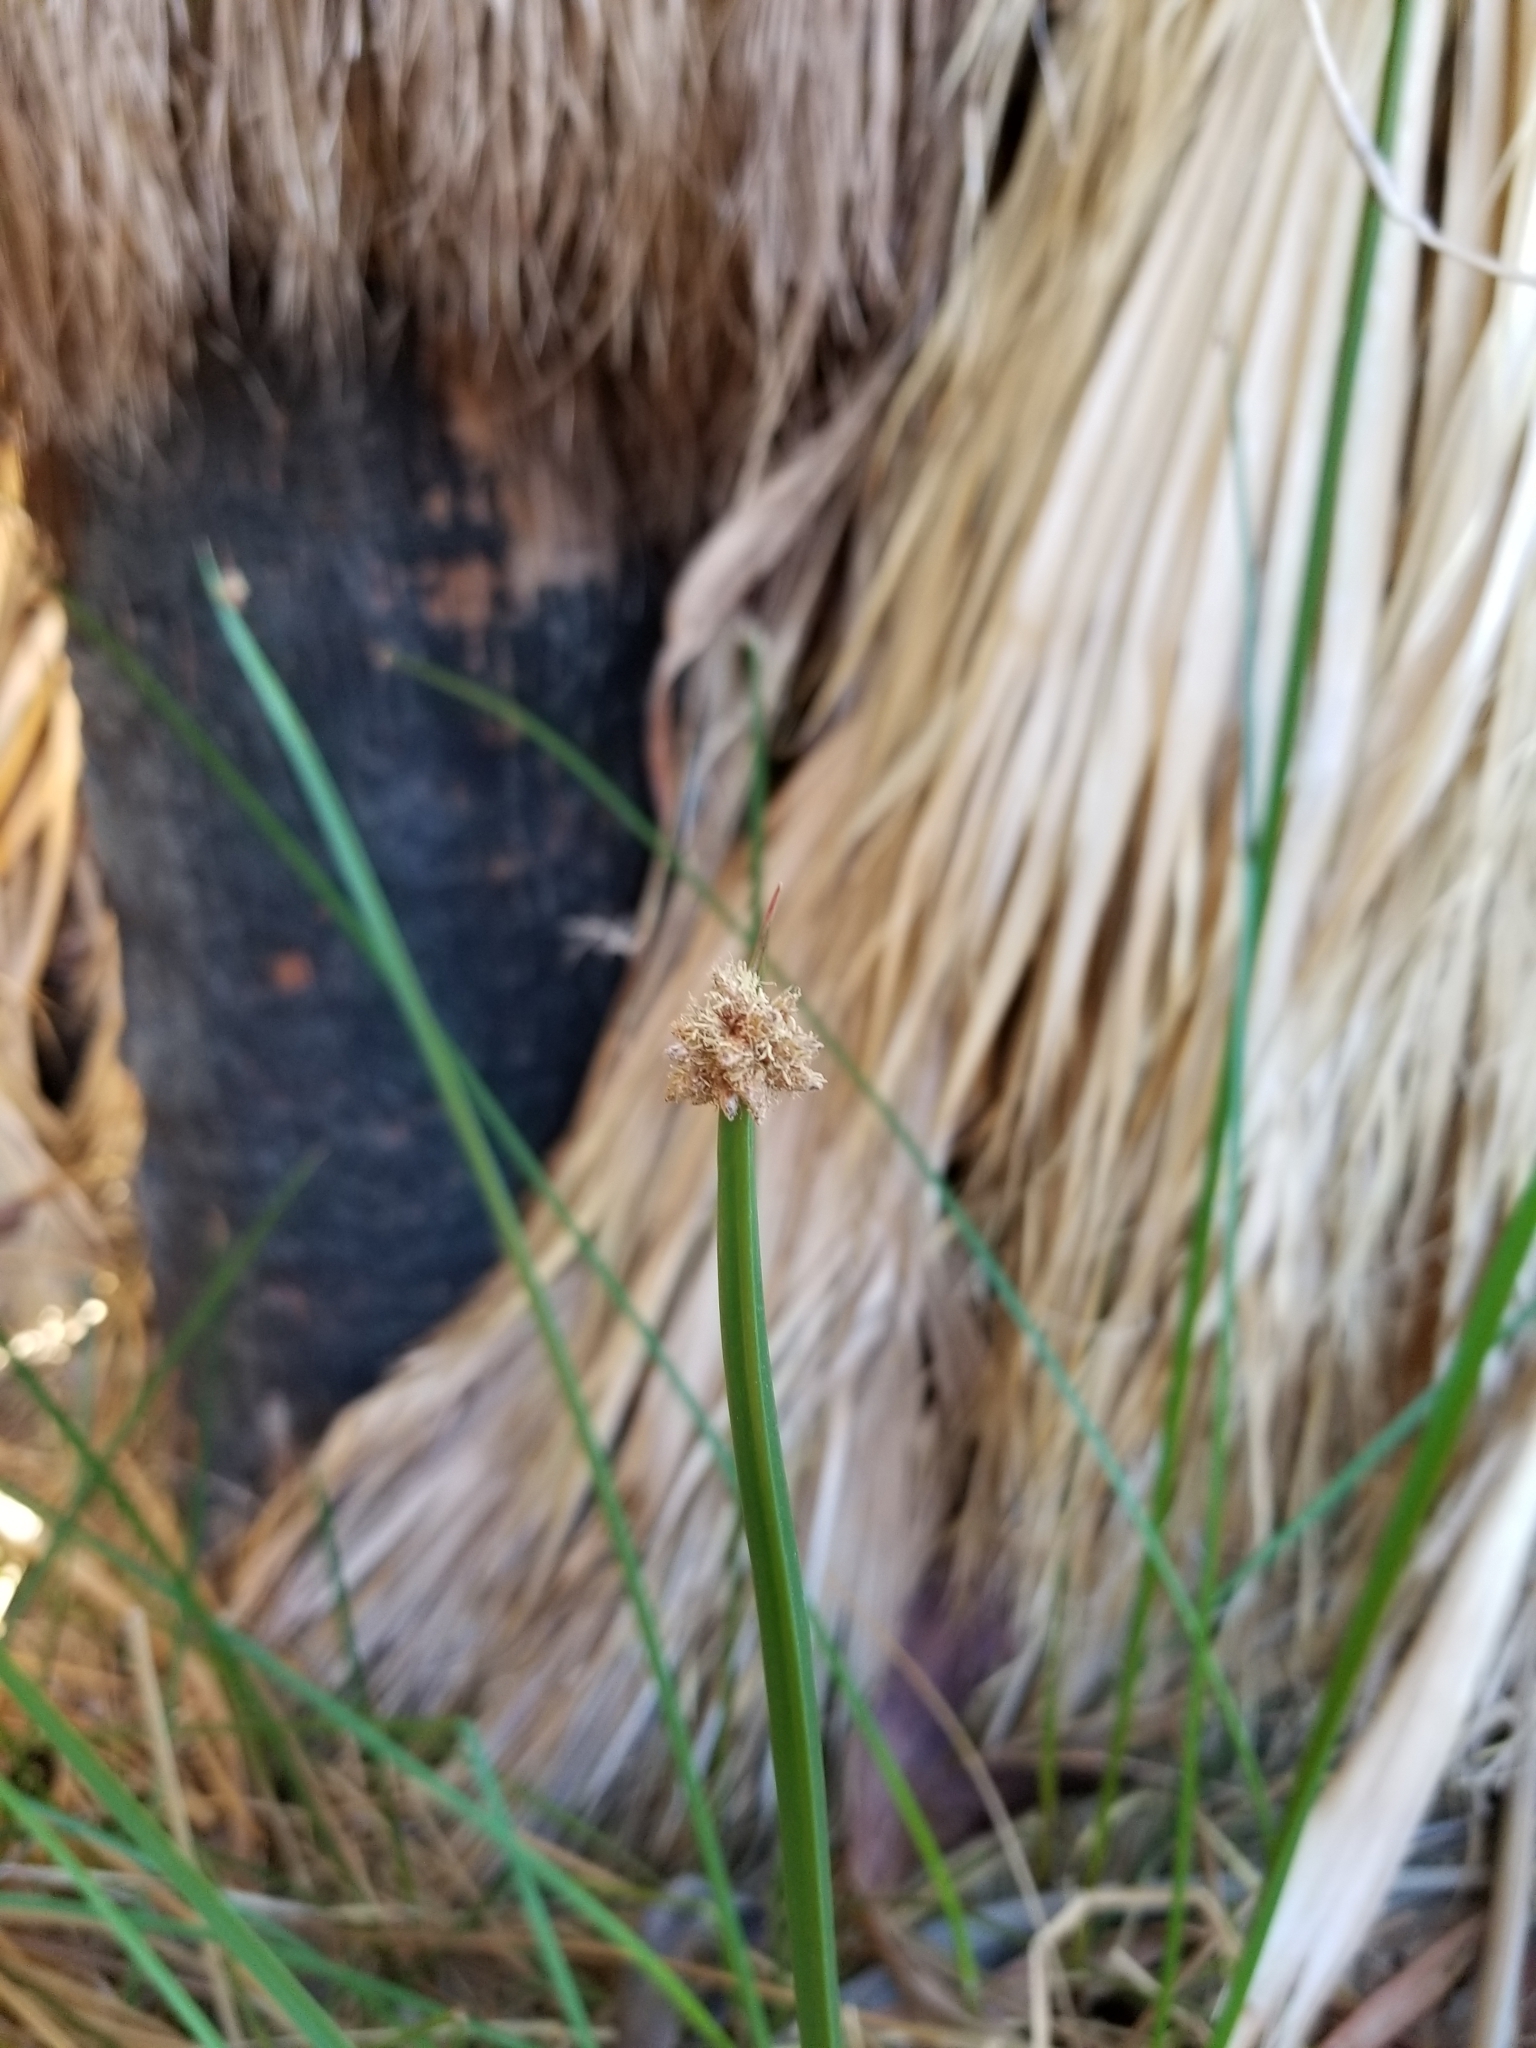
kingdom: Plantae
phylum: Tracheophyta
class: Liliopsida
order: Poales
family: Cyperaceae
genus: Schoenoplectus
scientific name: Schoenoplectus americanus
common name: American three-square bulrush
